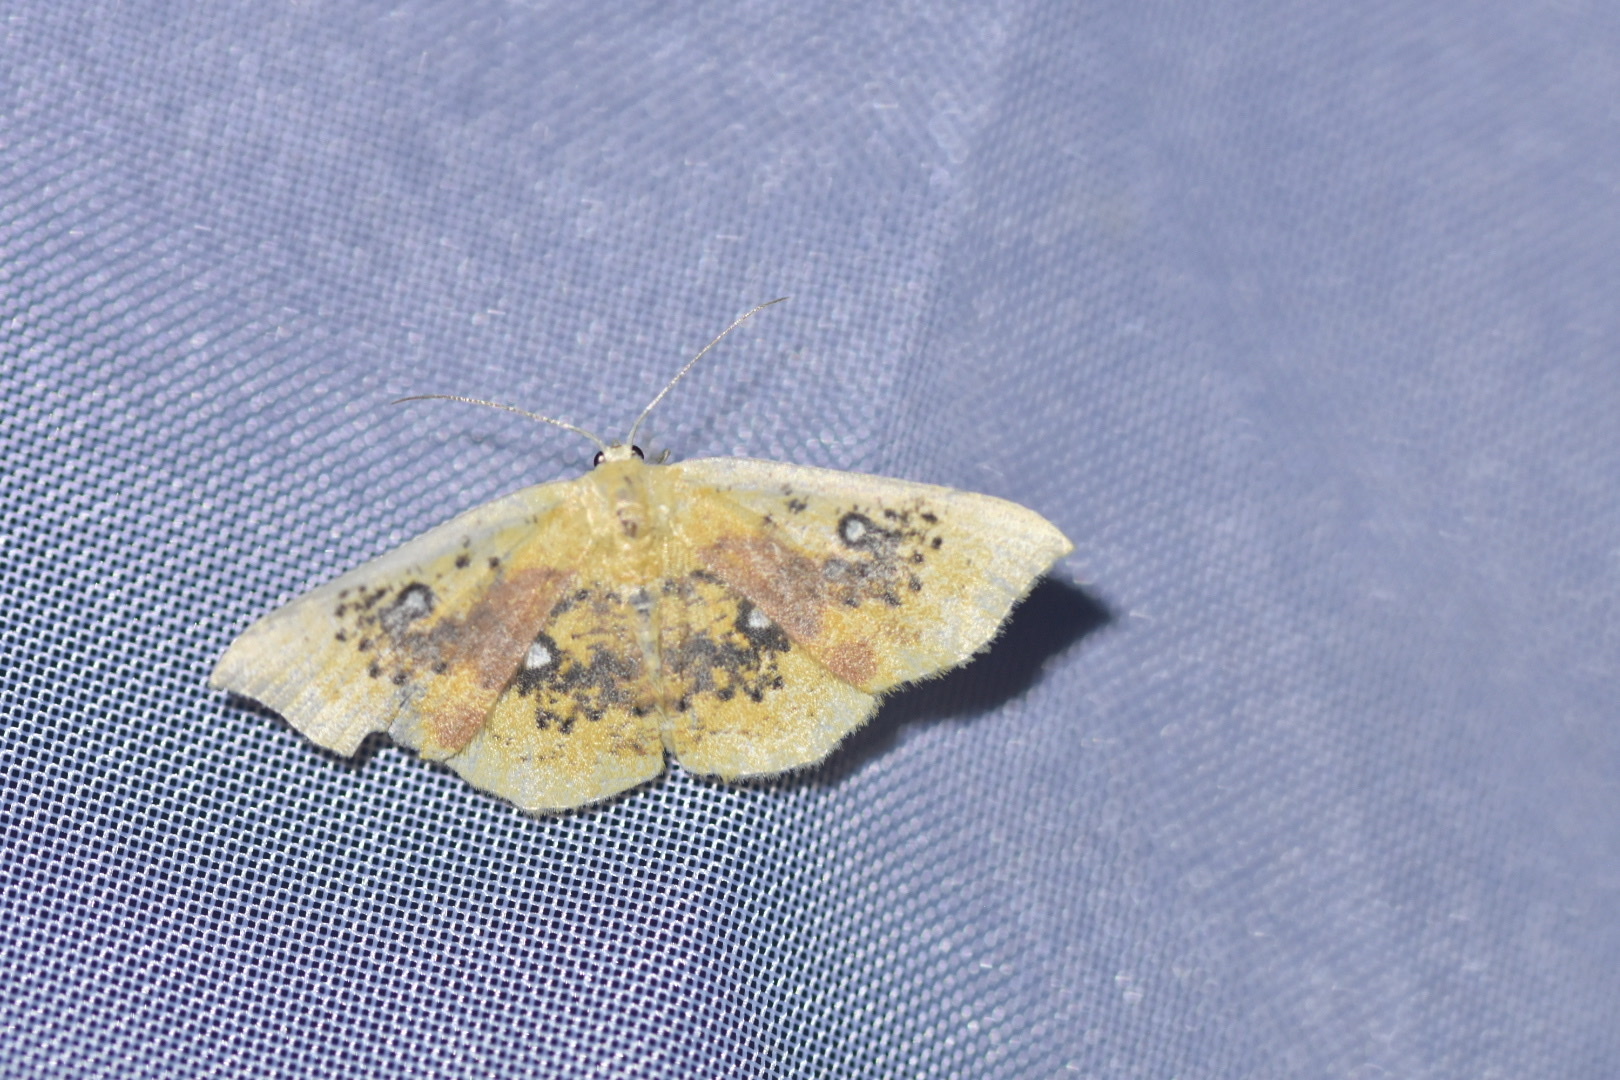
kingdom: Animalia
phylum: Arthropoda
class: Insecta
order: Lepidoptera
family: Geometridae
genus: Cyclophora
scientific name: Cyclophora albiocellaria
